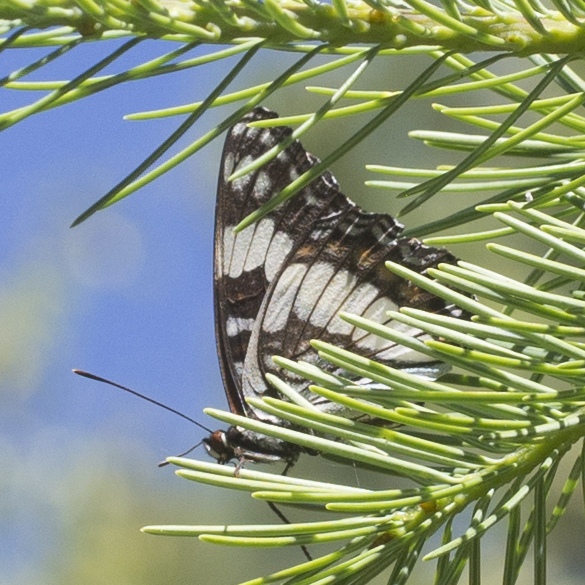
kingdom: Animalia
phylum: Arthropoda
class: Insecta
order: Lepidoptera
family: Nymphalidae
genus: Limenitis
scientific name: Limenitis weidemeyerii
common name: Weidemeyer's admiral
